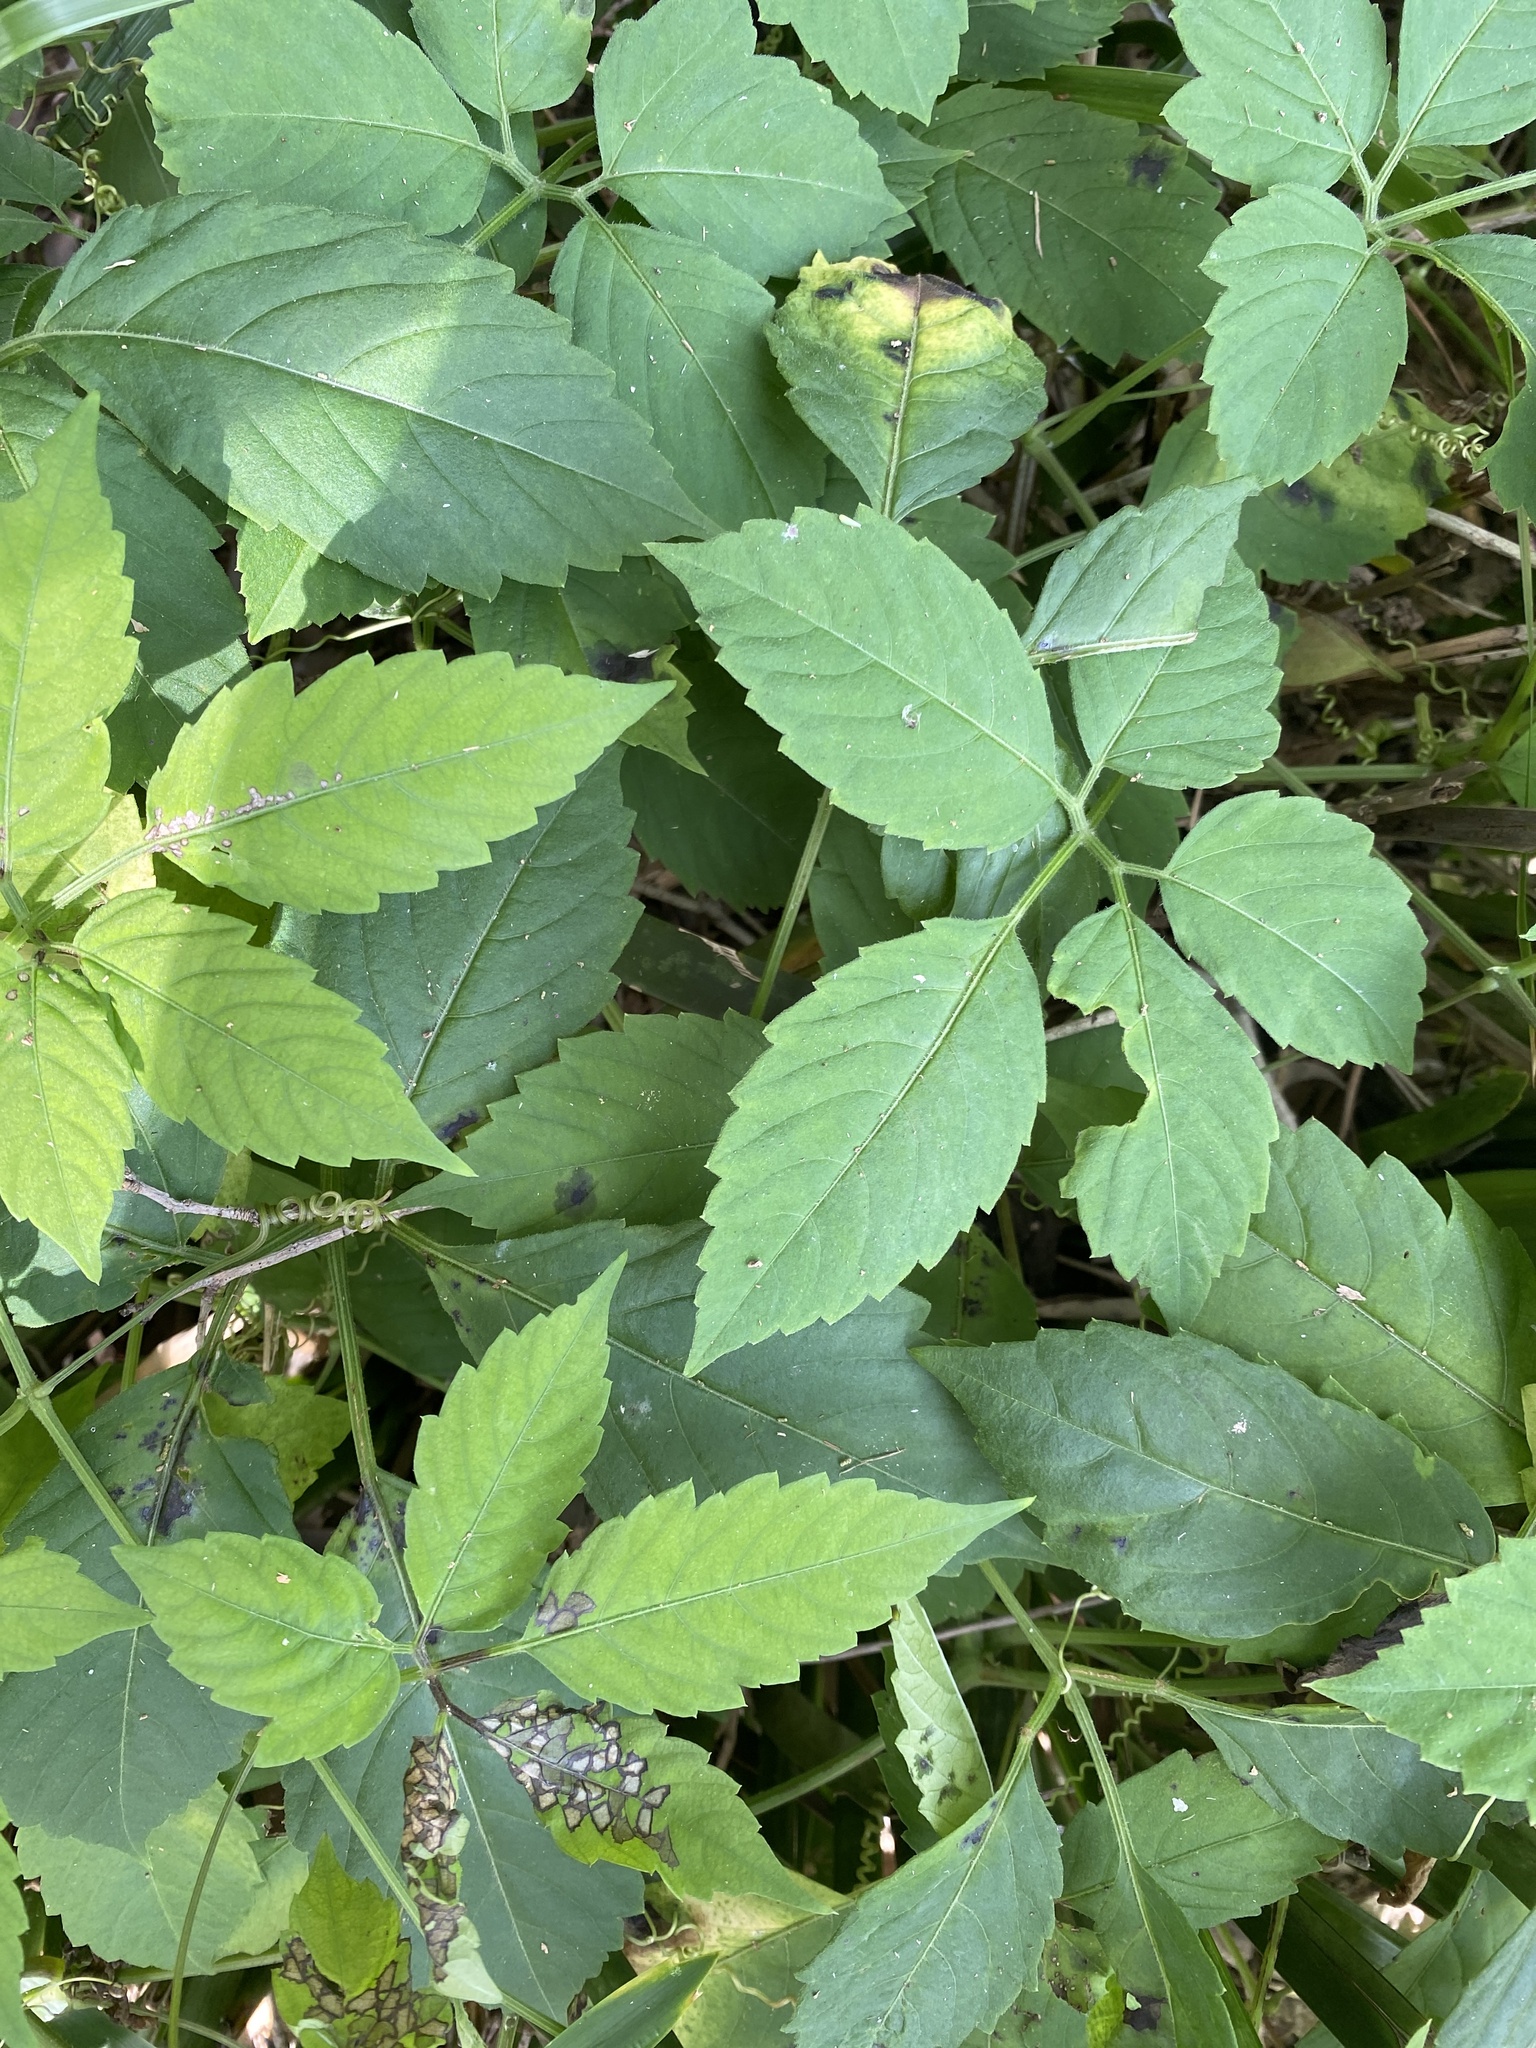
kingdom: Plantae
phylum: Tracheophyta
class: Magnoliopsida
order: Vitales
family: Vitaceae
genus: Causonis
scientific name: Causonis clematidea
